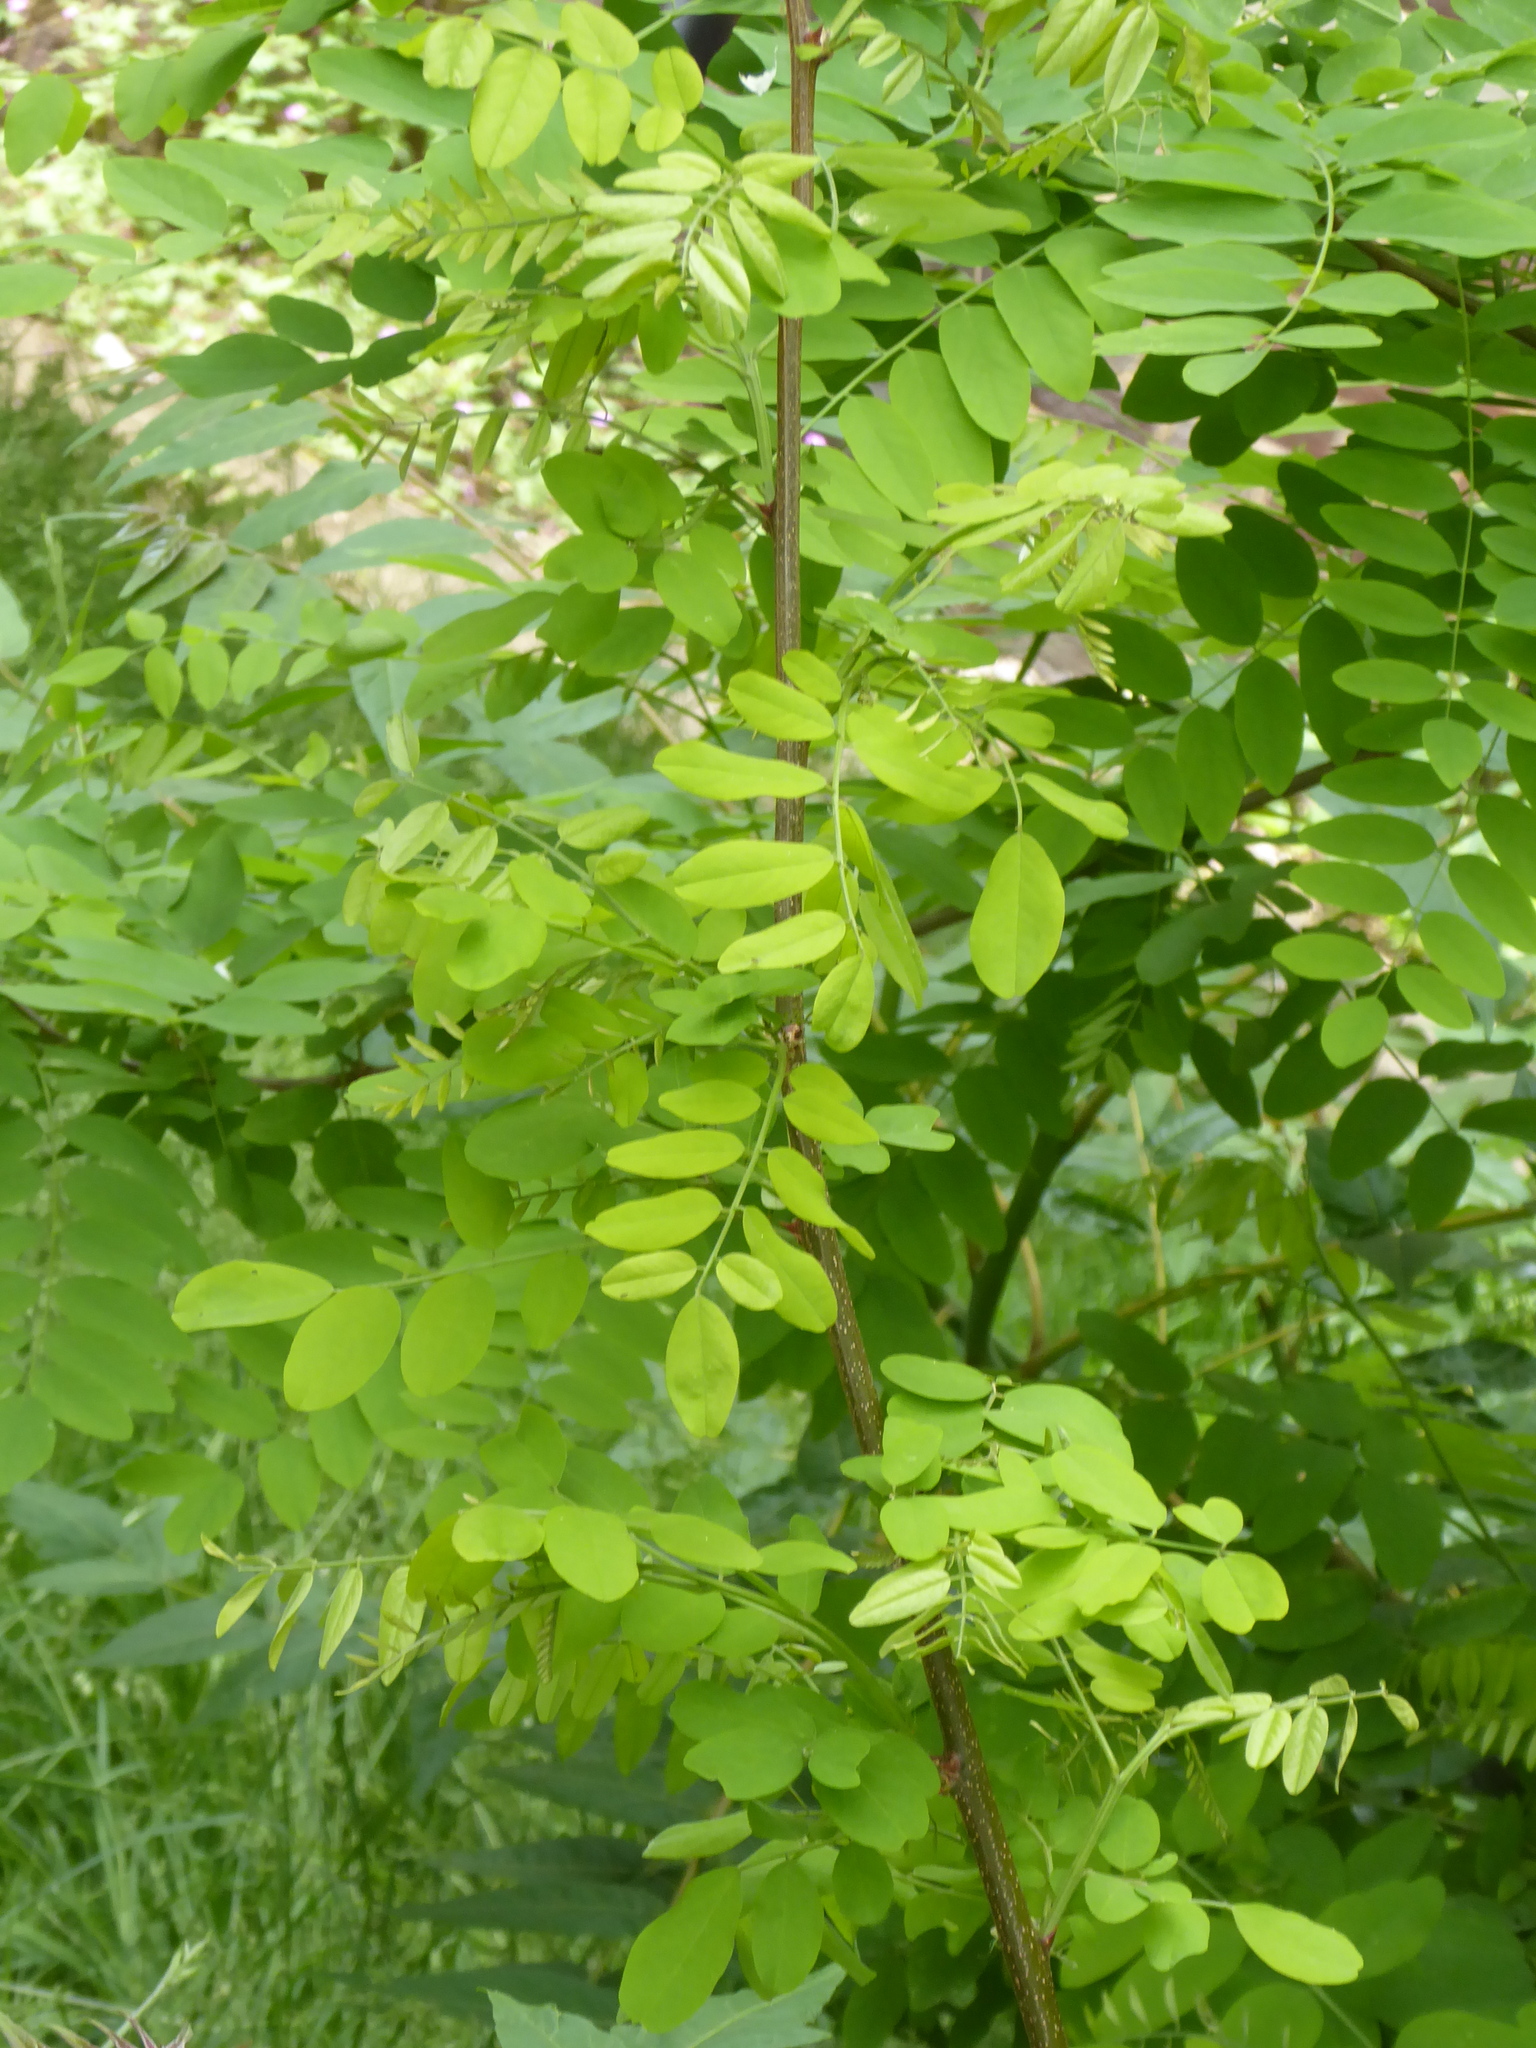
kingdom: Plantae
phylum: Tracheophyta
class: Magnoliopsida
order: Fabales
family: Fabaceae
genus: Robinia
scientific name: Robinia pseudoacacia
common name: Black locust
